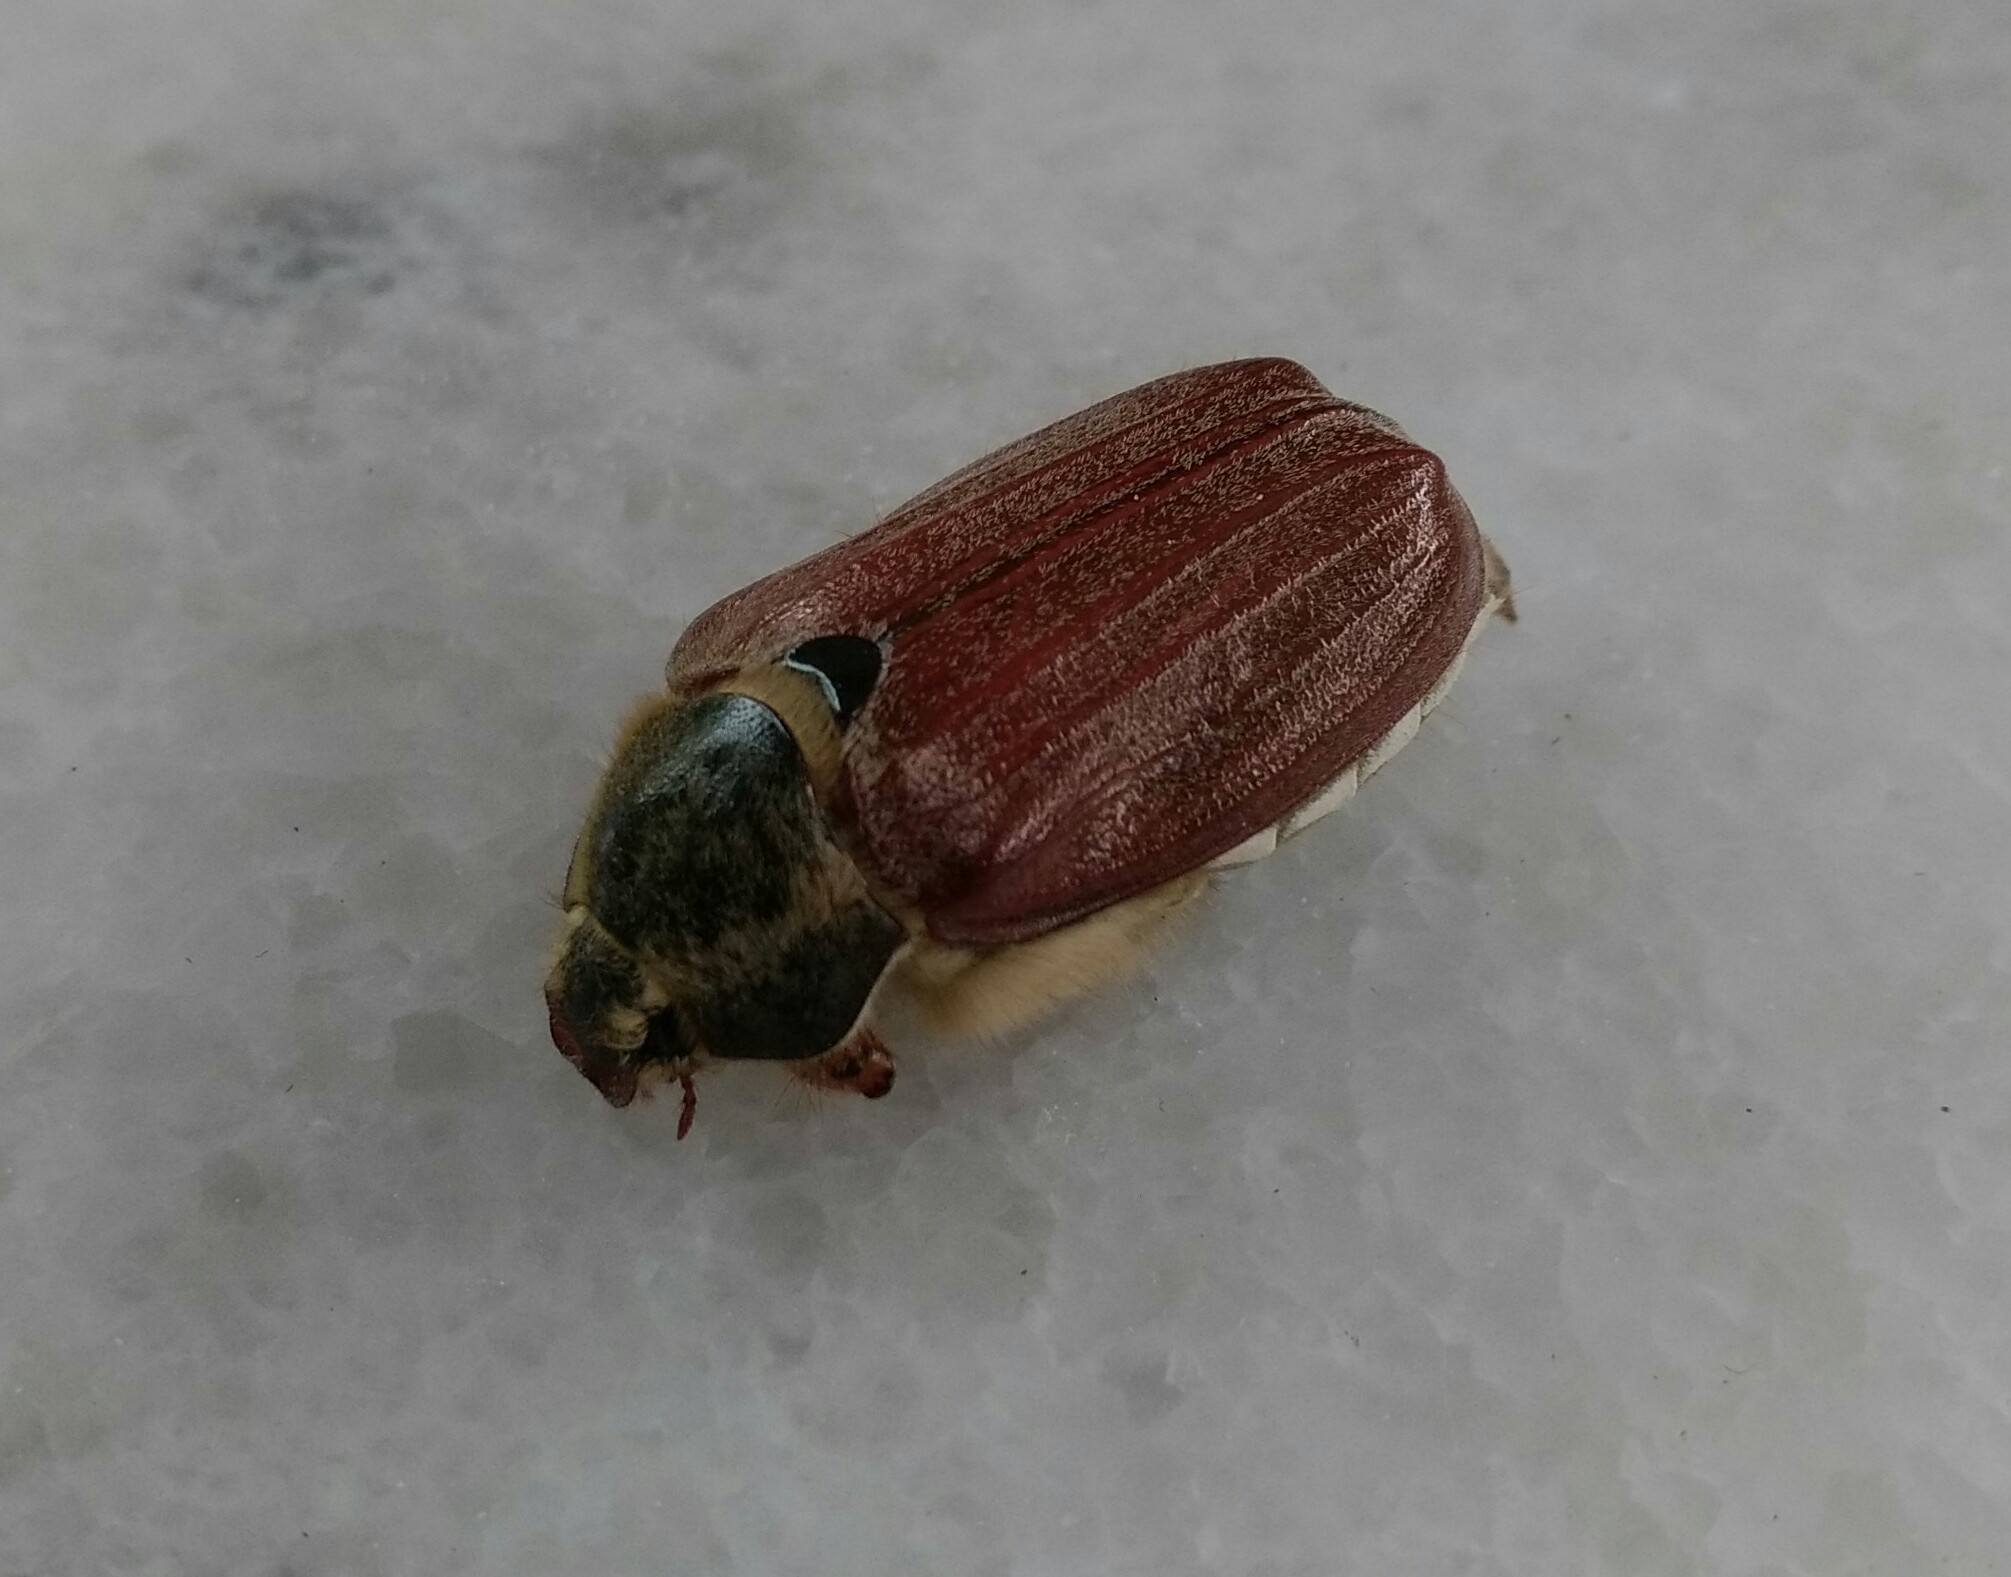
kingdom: Animalia
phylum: Arthropoda
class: Insecta
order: Coleoptera
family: Scarabaeidae
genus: Melolontha
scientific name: Melolontha melolontha
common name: Cockchafer maybeetle
